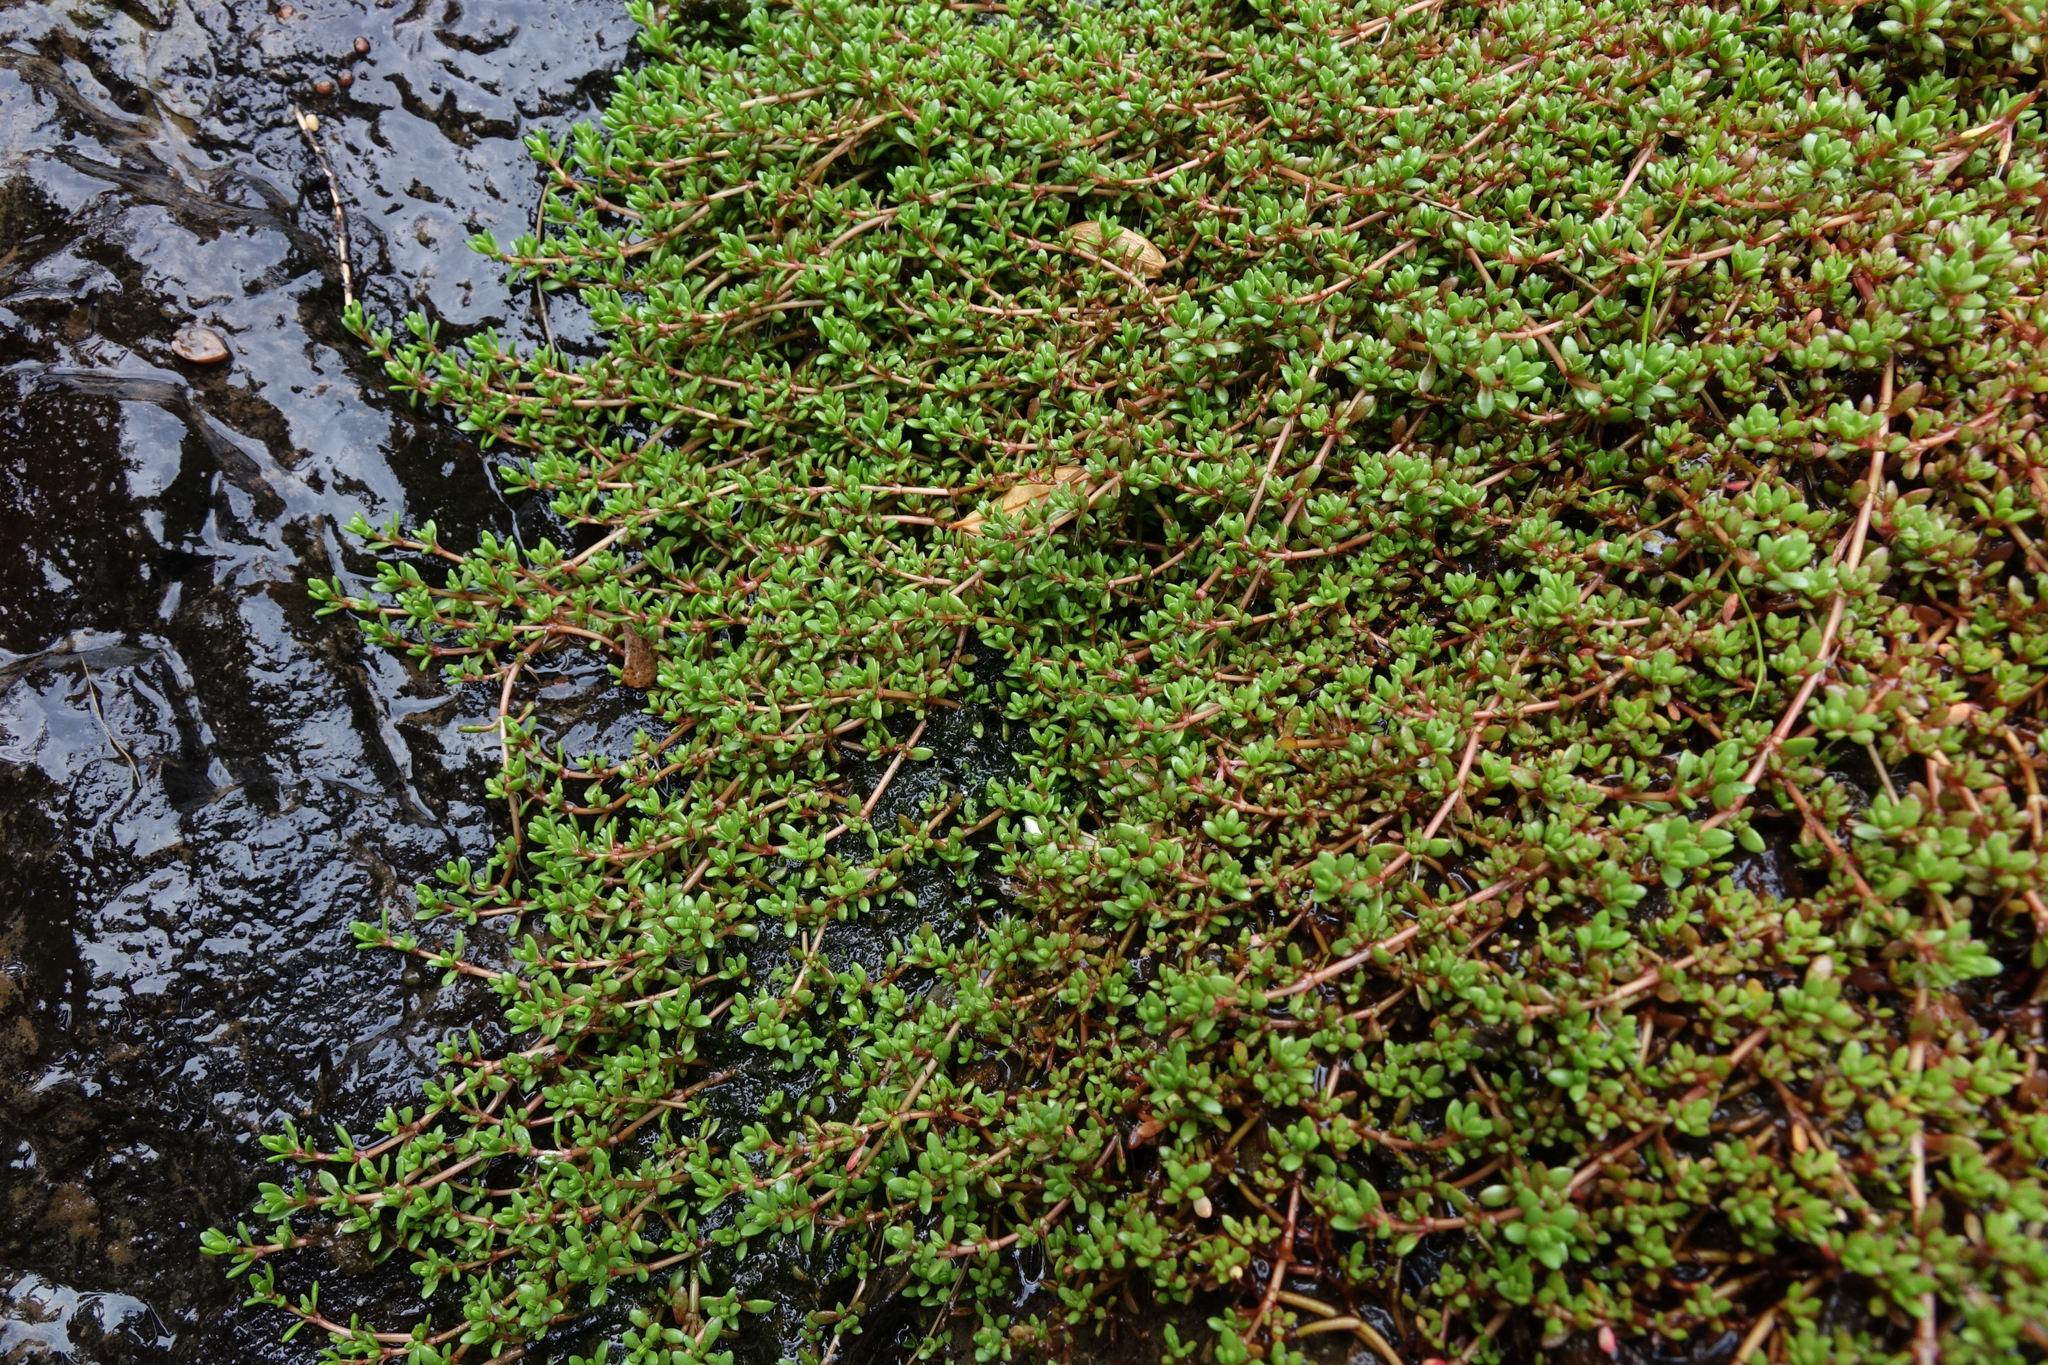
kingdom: Plantae
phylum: Tracheophyta
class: Magnoliopsida
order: Saxifragales
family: Crassulaceae
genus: Crassula
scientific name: Crassula moschata
